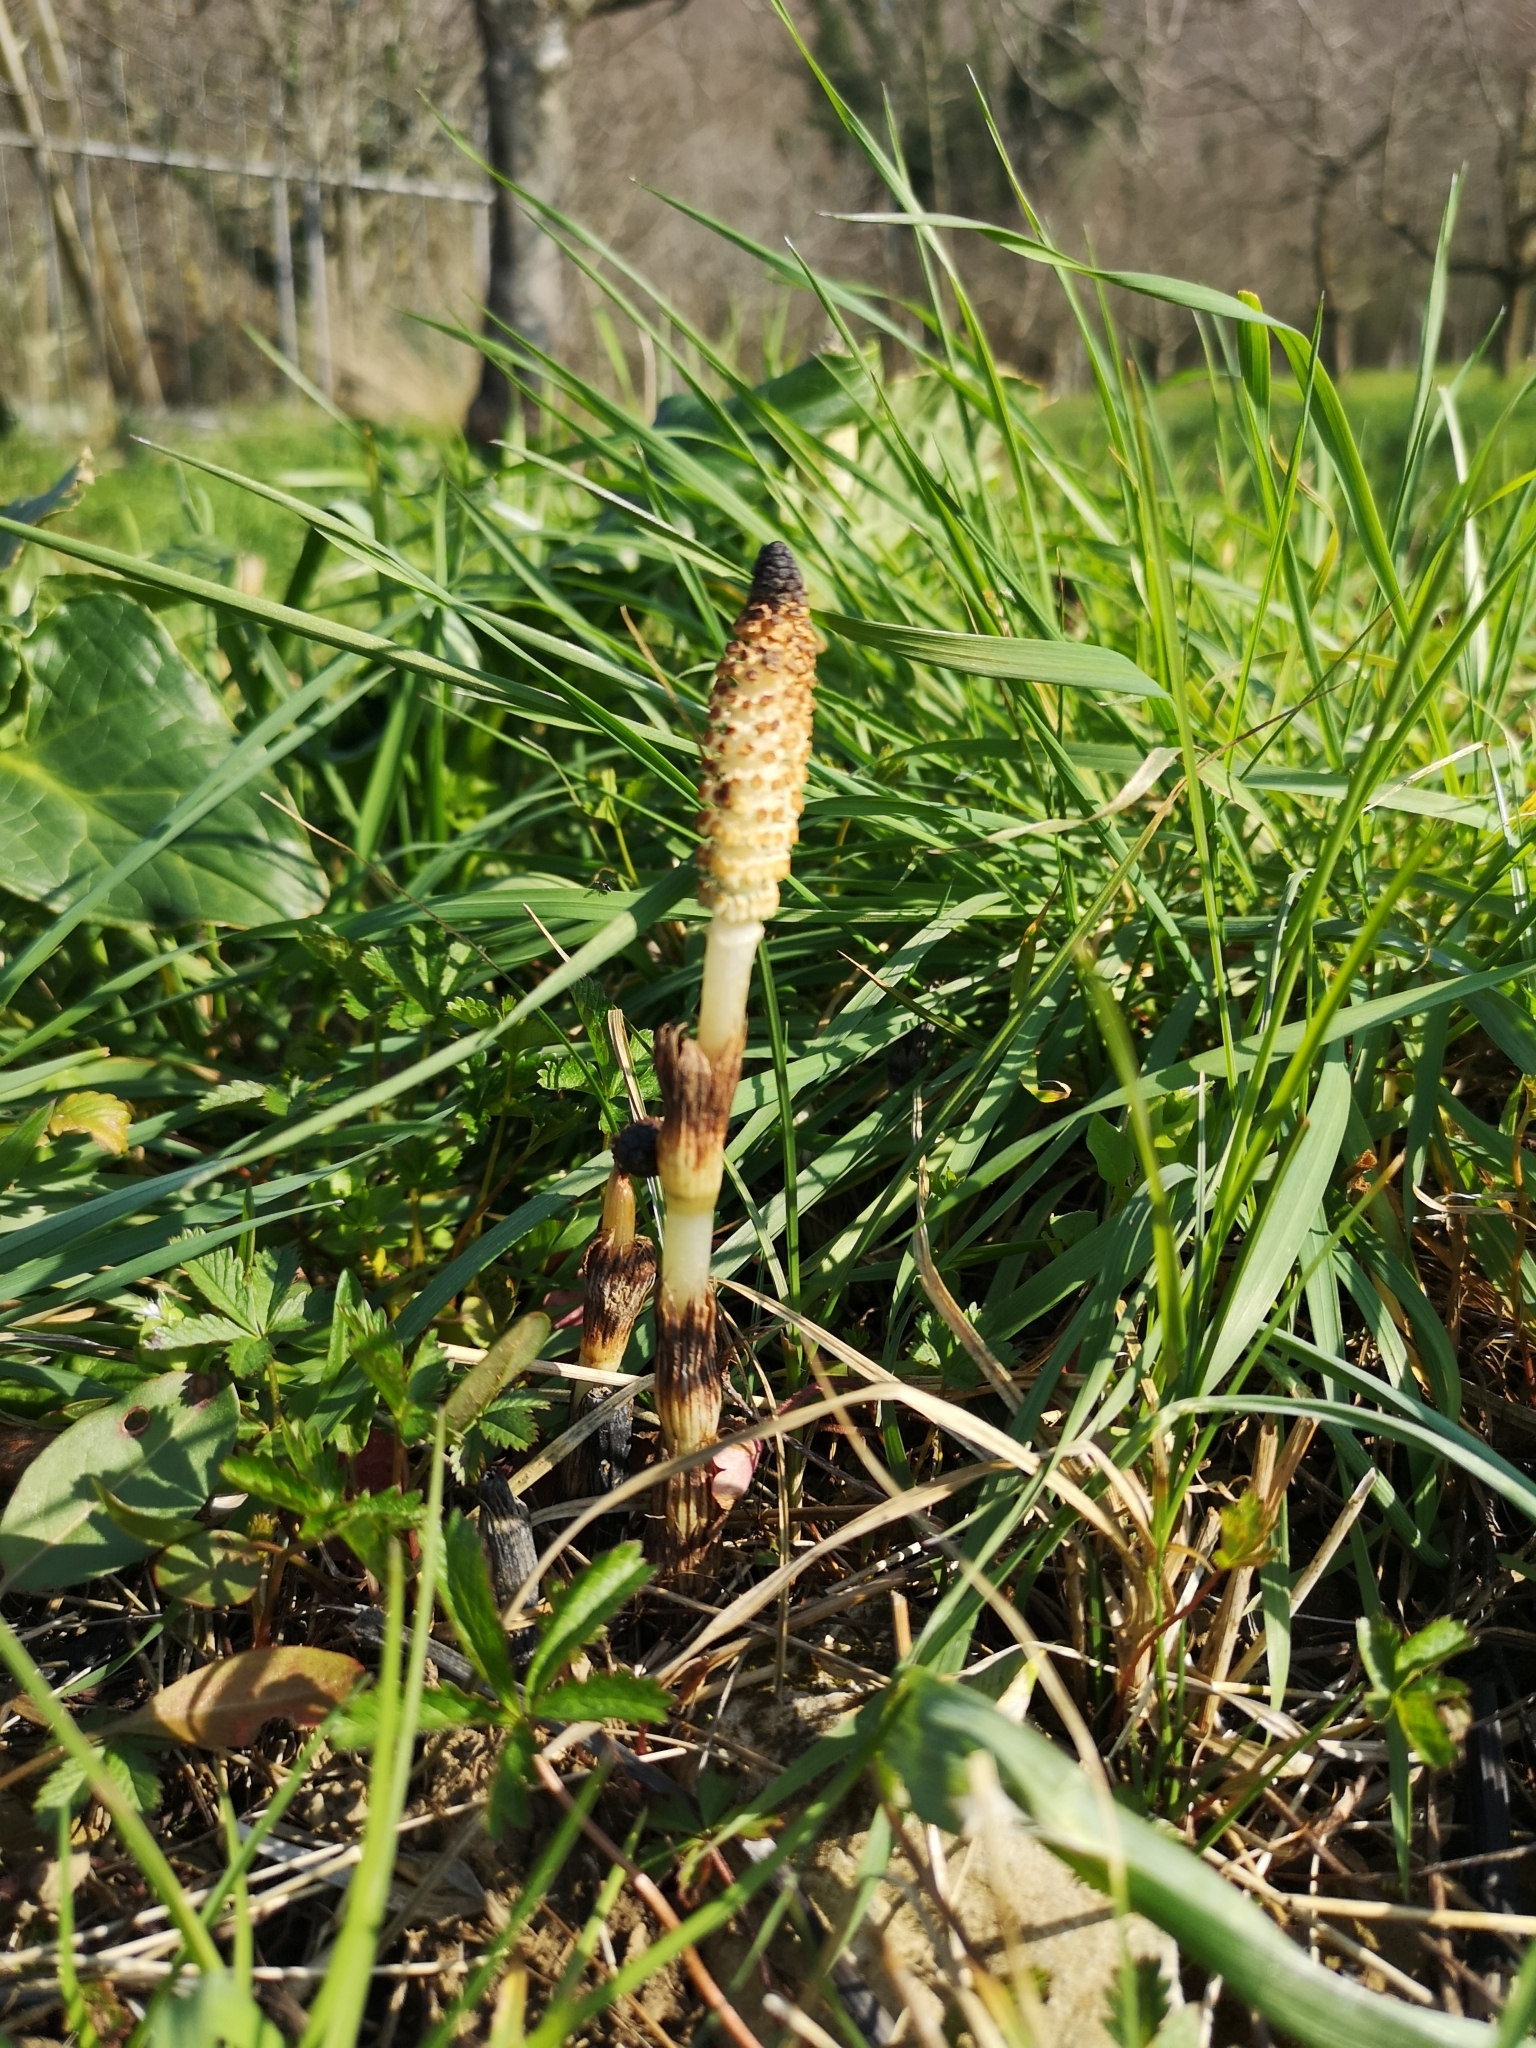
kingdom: Plantae
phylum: Tracheophyta
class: Polypodiopsida
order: Equisetales
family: Equisetaceae
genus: Equisetum
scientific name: Equisetum telmateia
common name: Great horsetail
